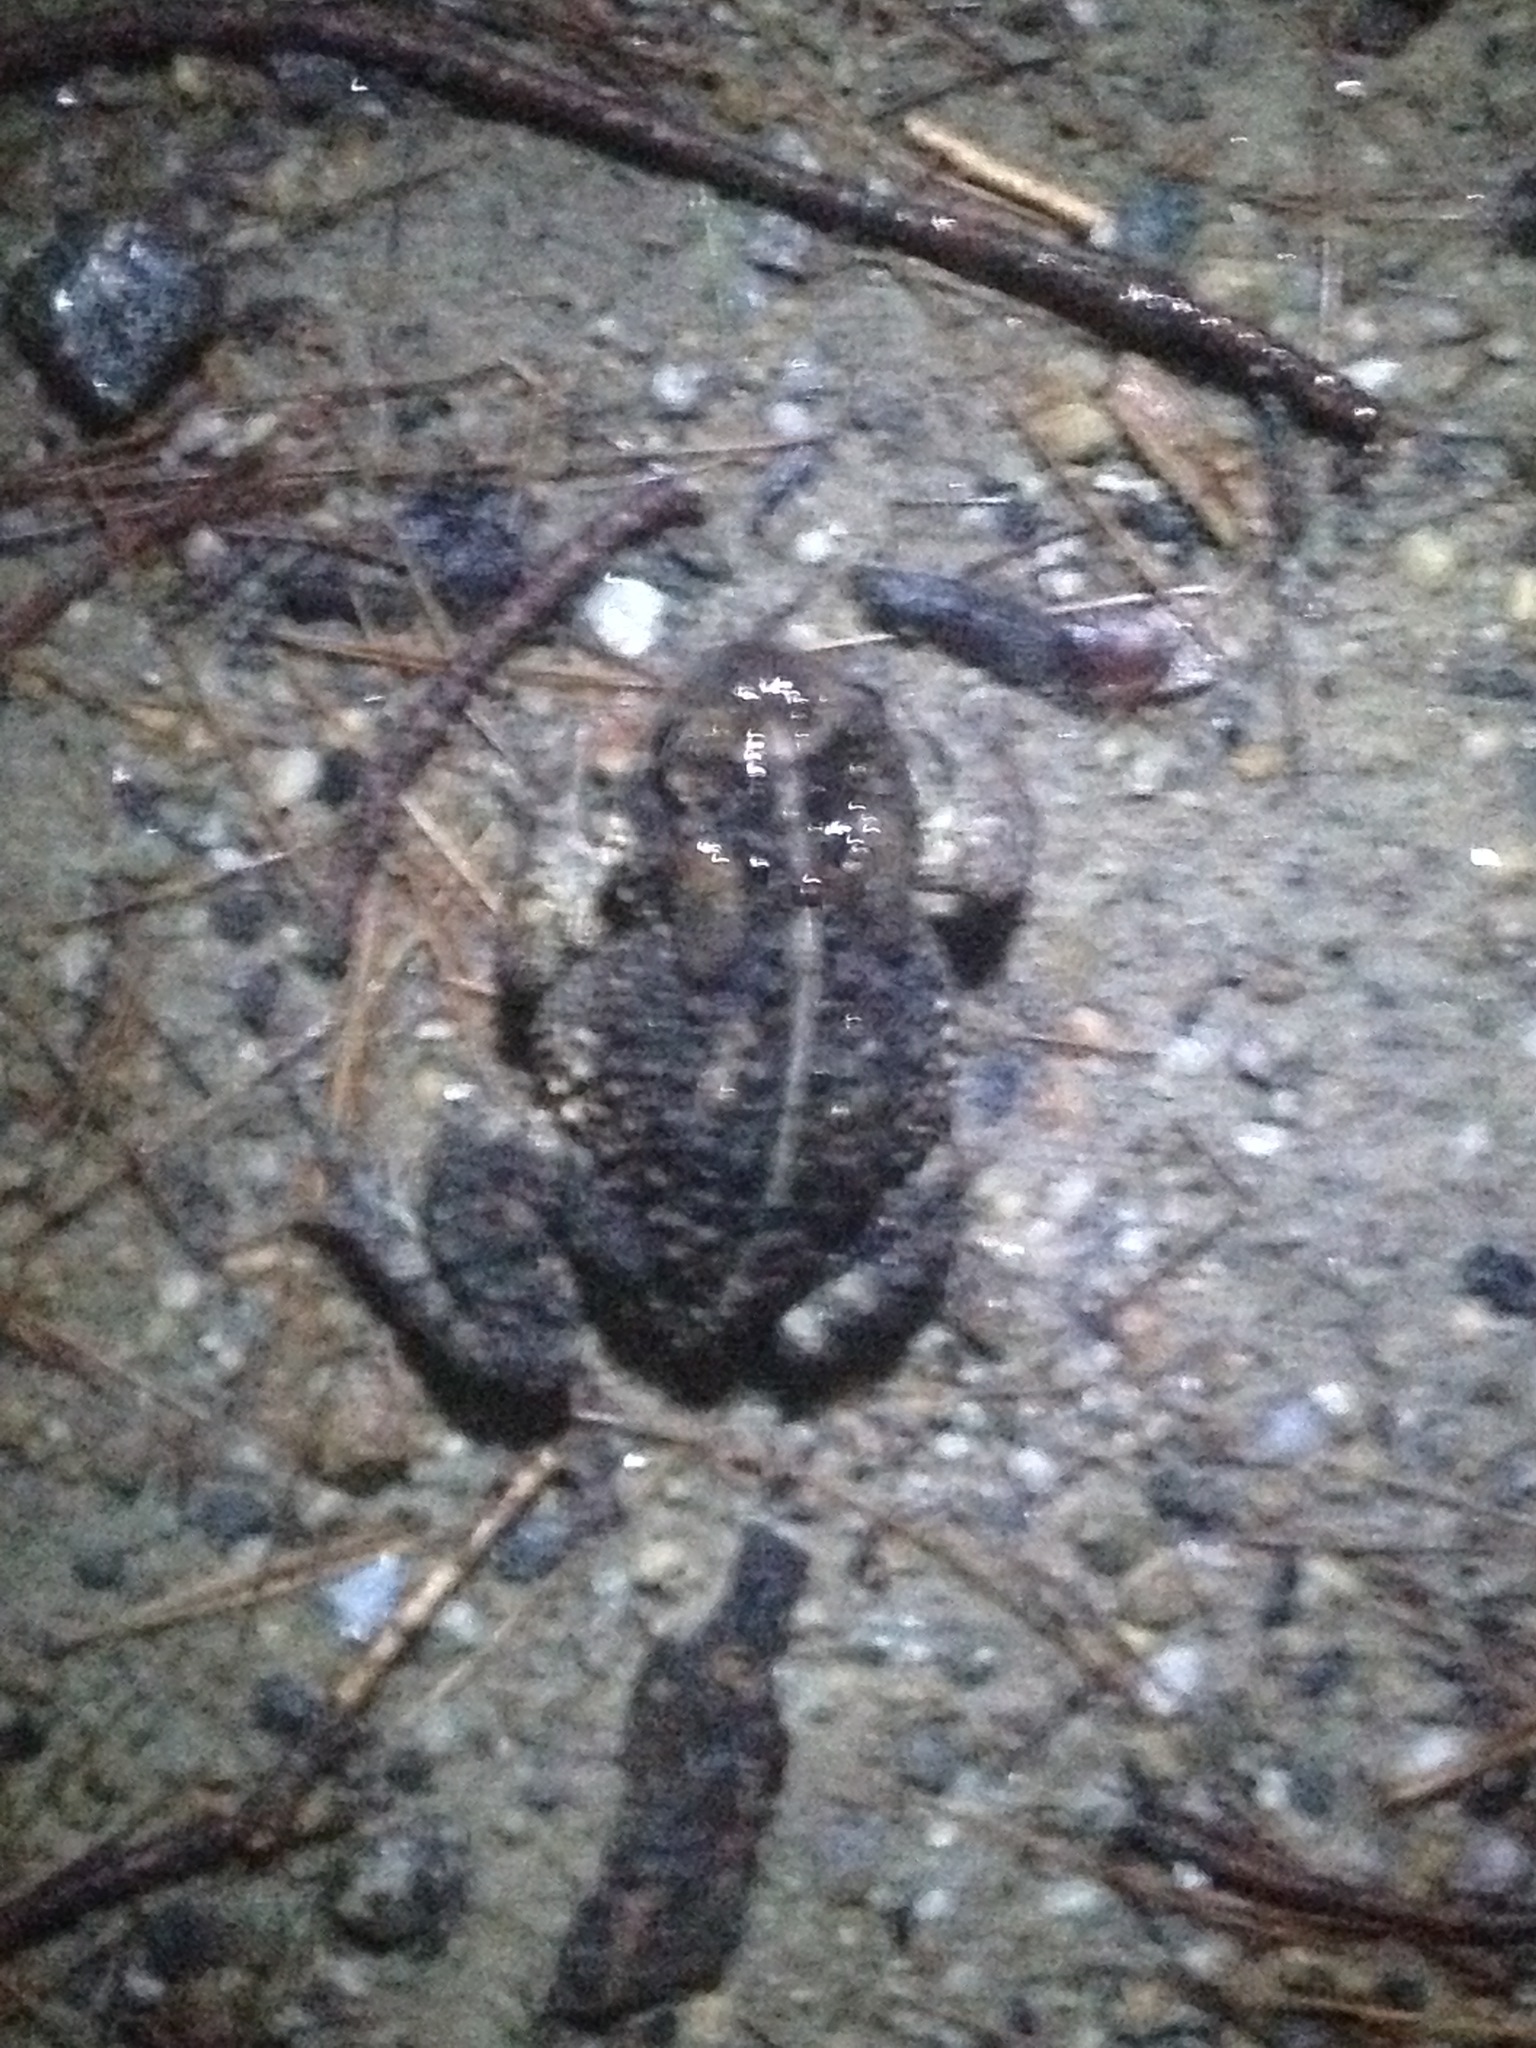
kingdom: Animalia
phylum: Chordata
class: Amphibia
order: Anura
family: Bufonidae
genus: Anaxyrus
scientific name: Anaxyrus americanus
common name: American toad
